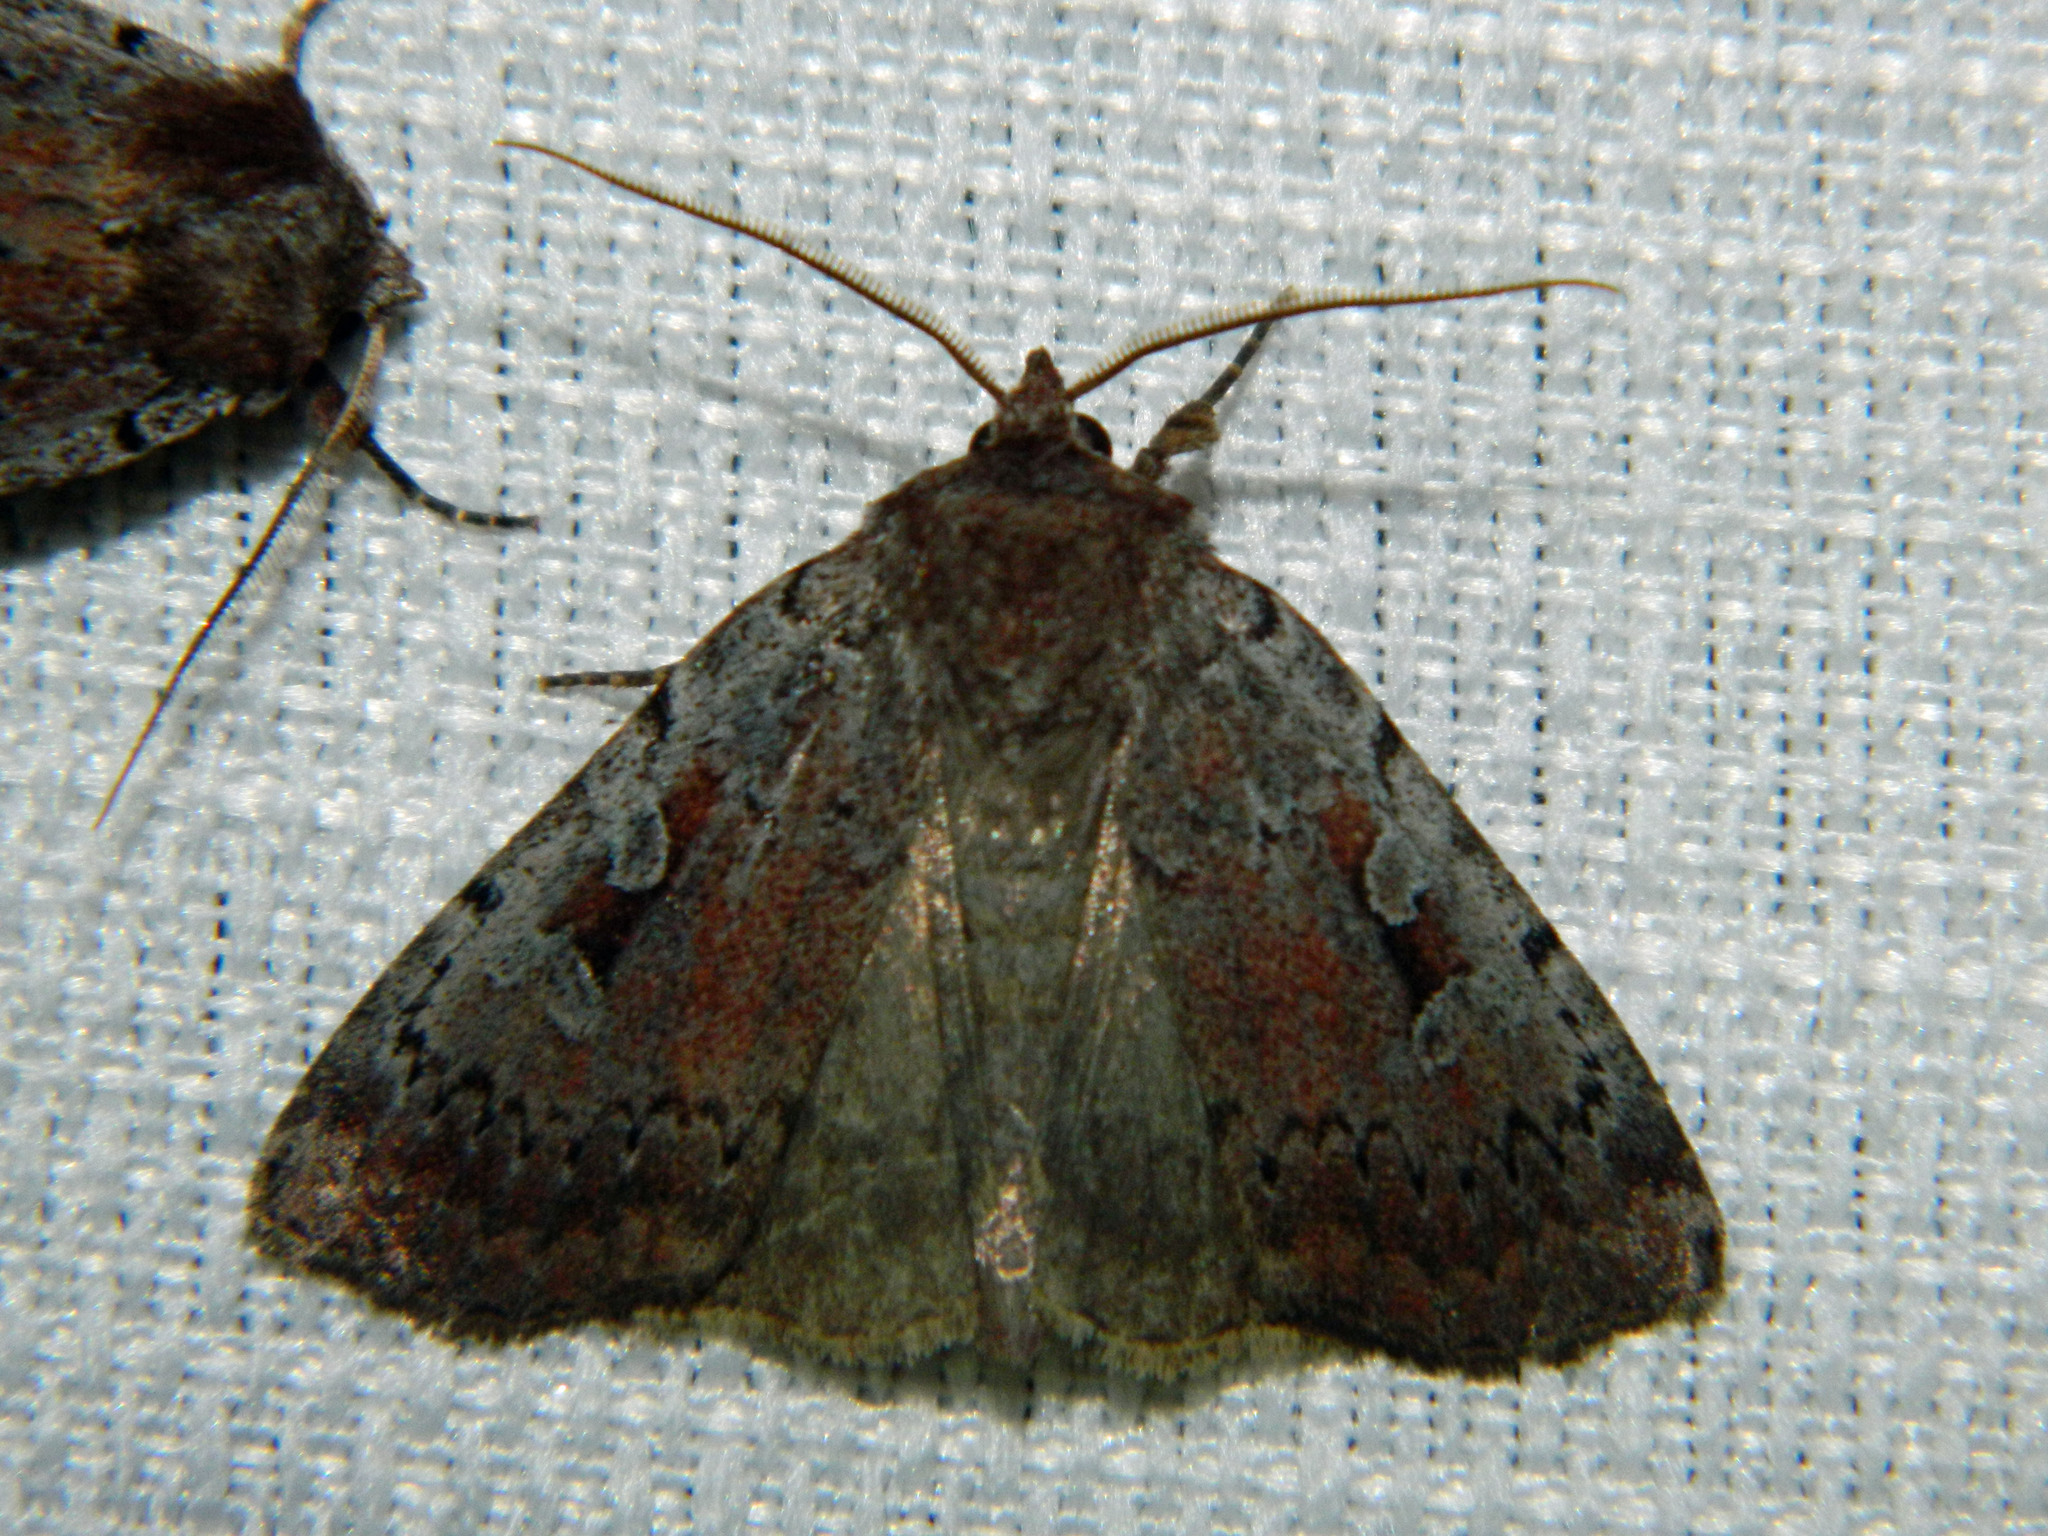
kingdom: Animalia
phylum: Arthropoda
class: Insecta
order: Lepidoptera
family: Noctuidae
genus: Coenophila
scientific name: Coenophila opacifrons
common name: Blueberry dart
